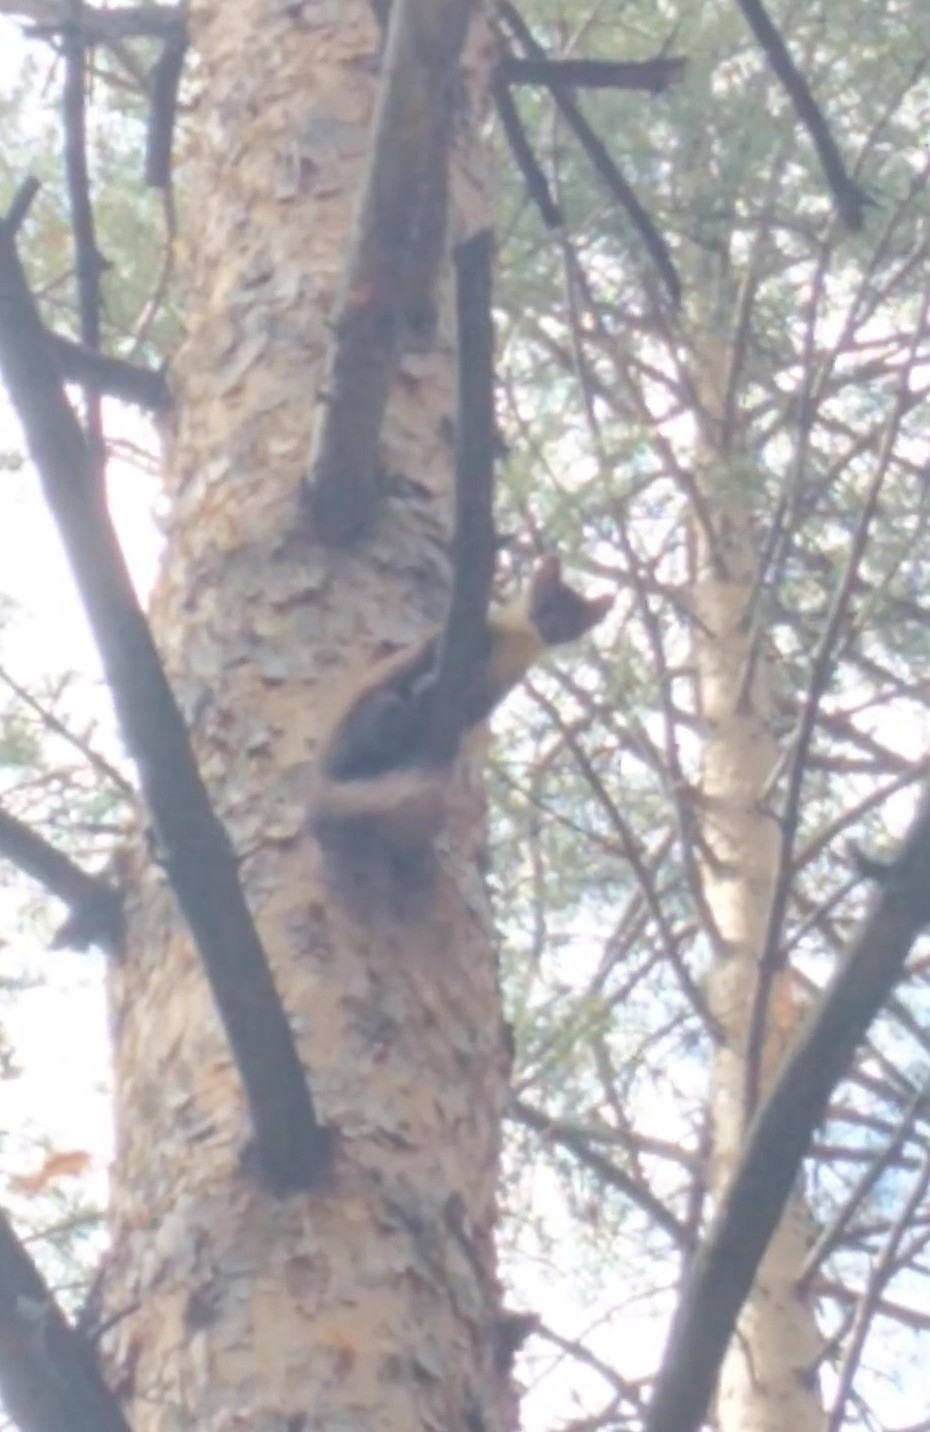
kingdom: Animalia
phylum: Chordata
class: Mammalia
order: Carnivora
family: Mustelidae
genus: Martes
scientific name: Martes martes
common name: European pine marten
